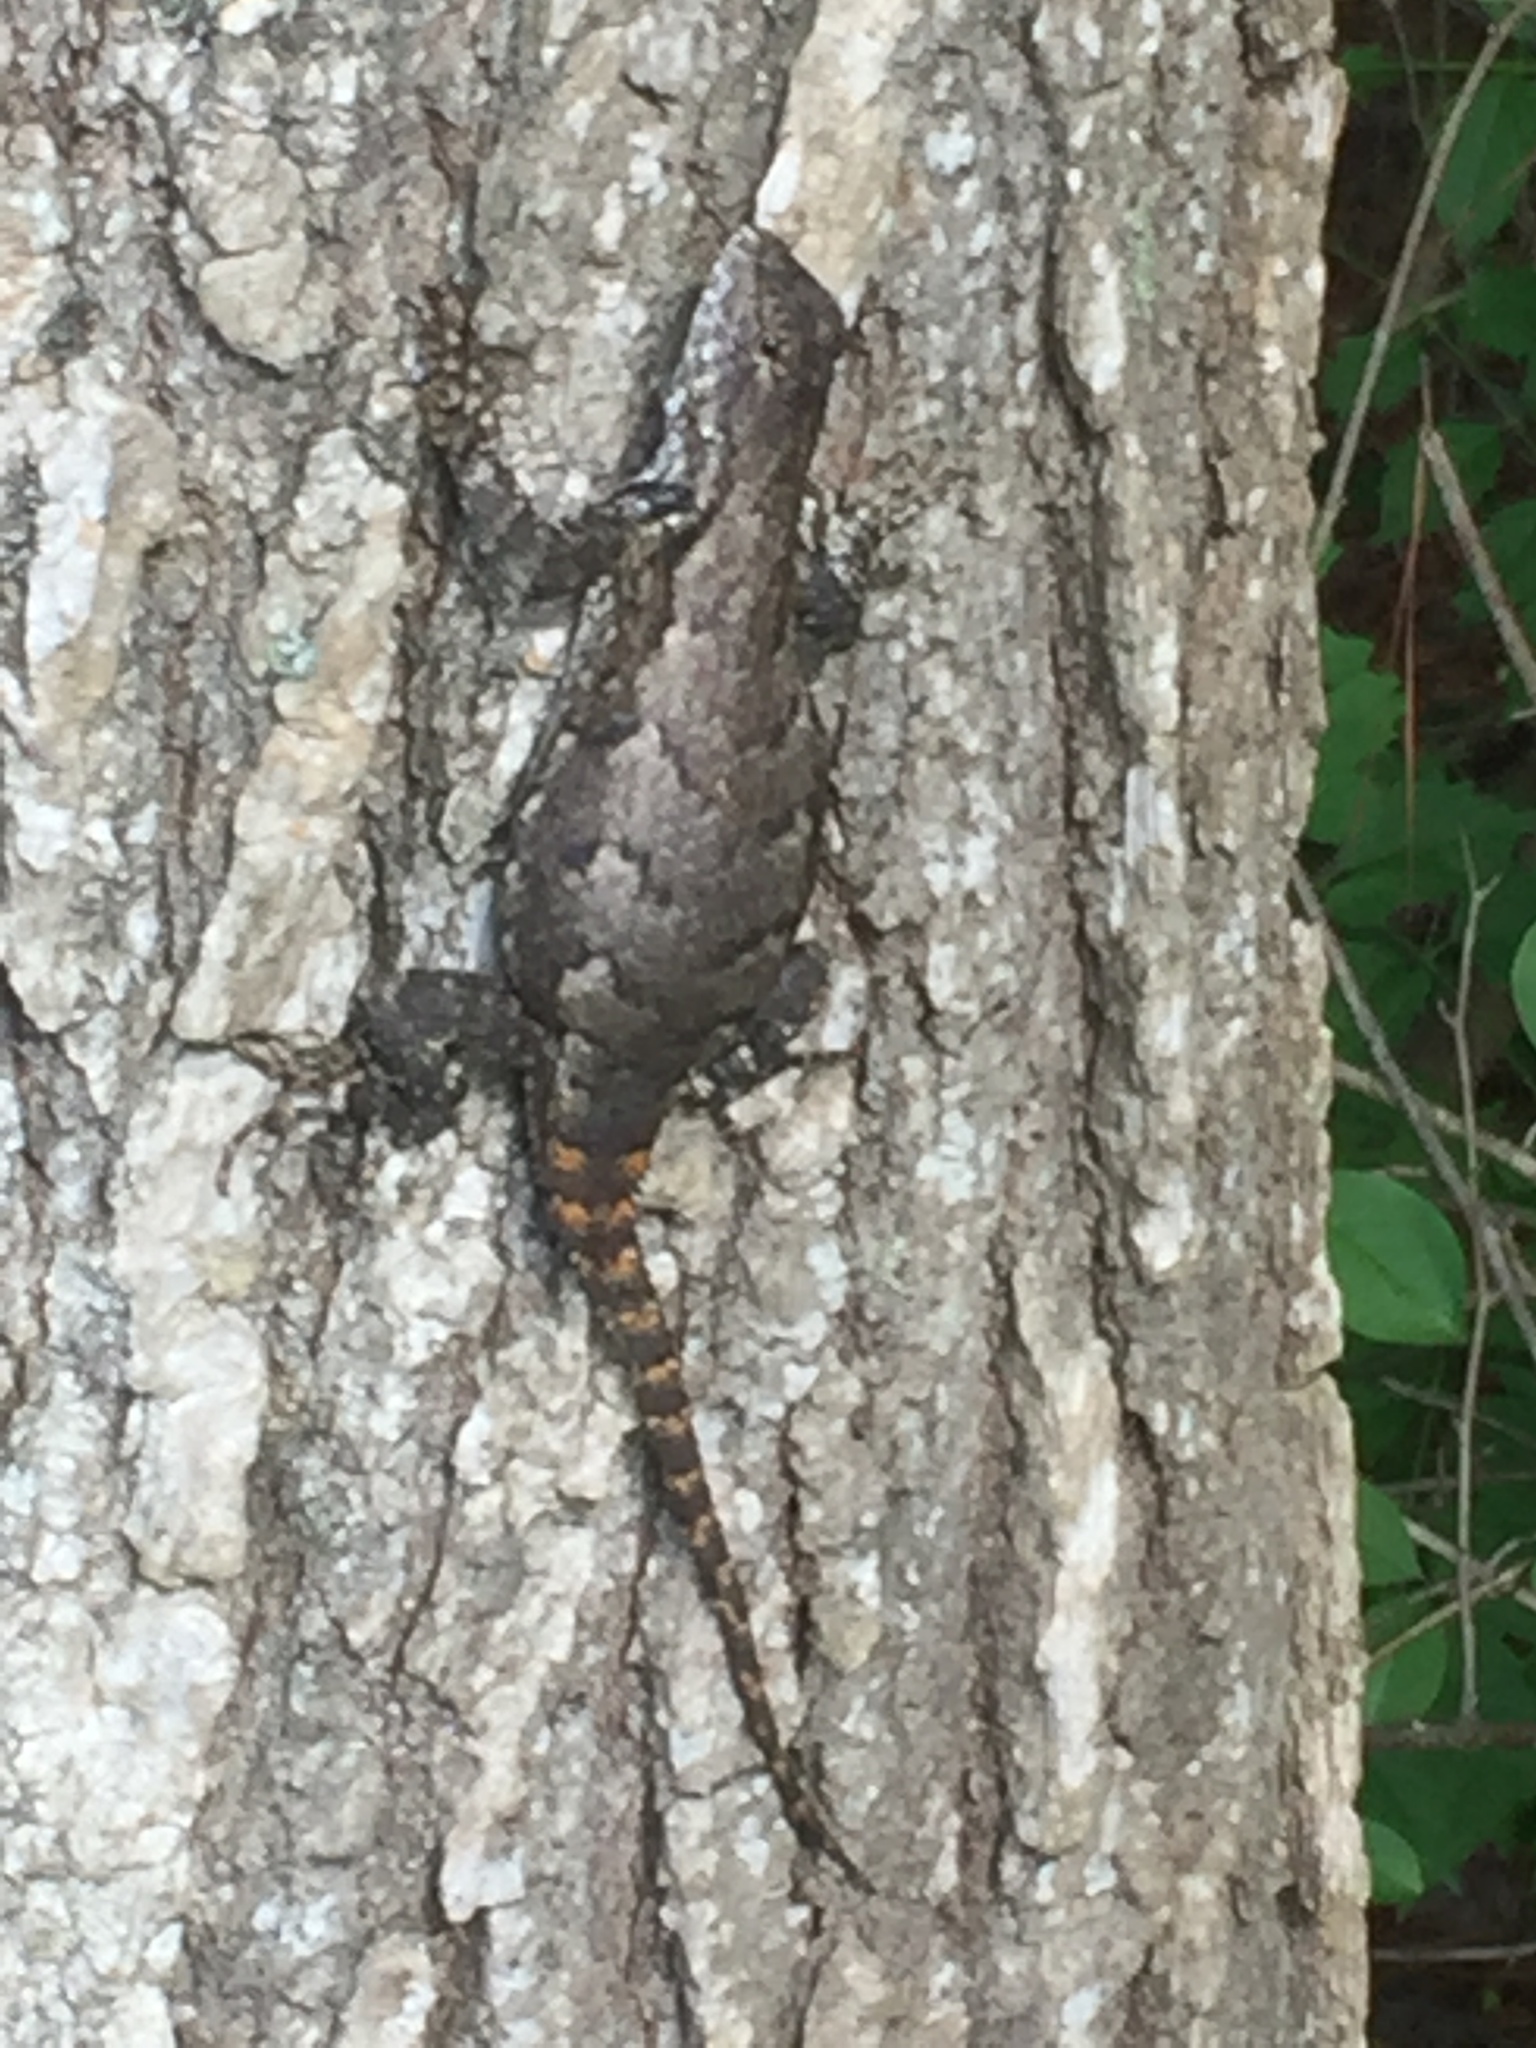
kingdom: Animalia
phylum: Chordata
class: Squamata
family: Phrynosomatidae
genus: Sceloporus
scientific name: Sceloporus undulatus
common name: Eastern fence lizard
